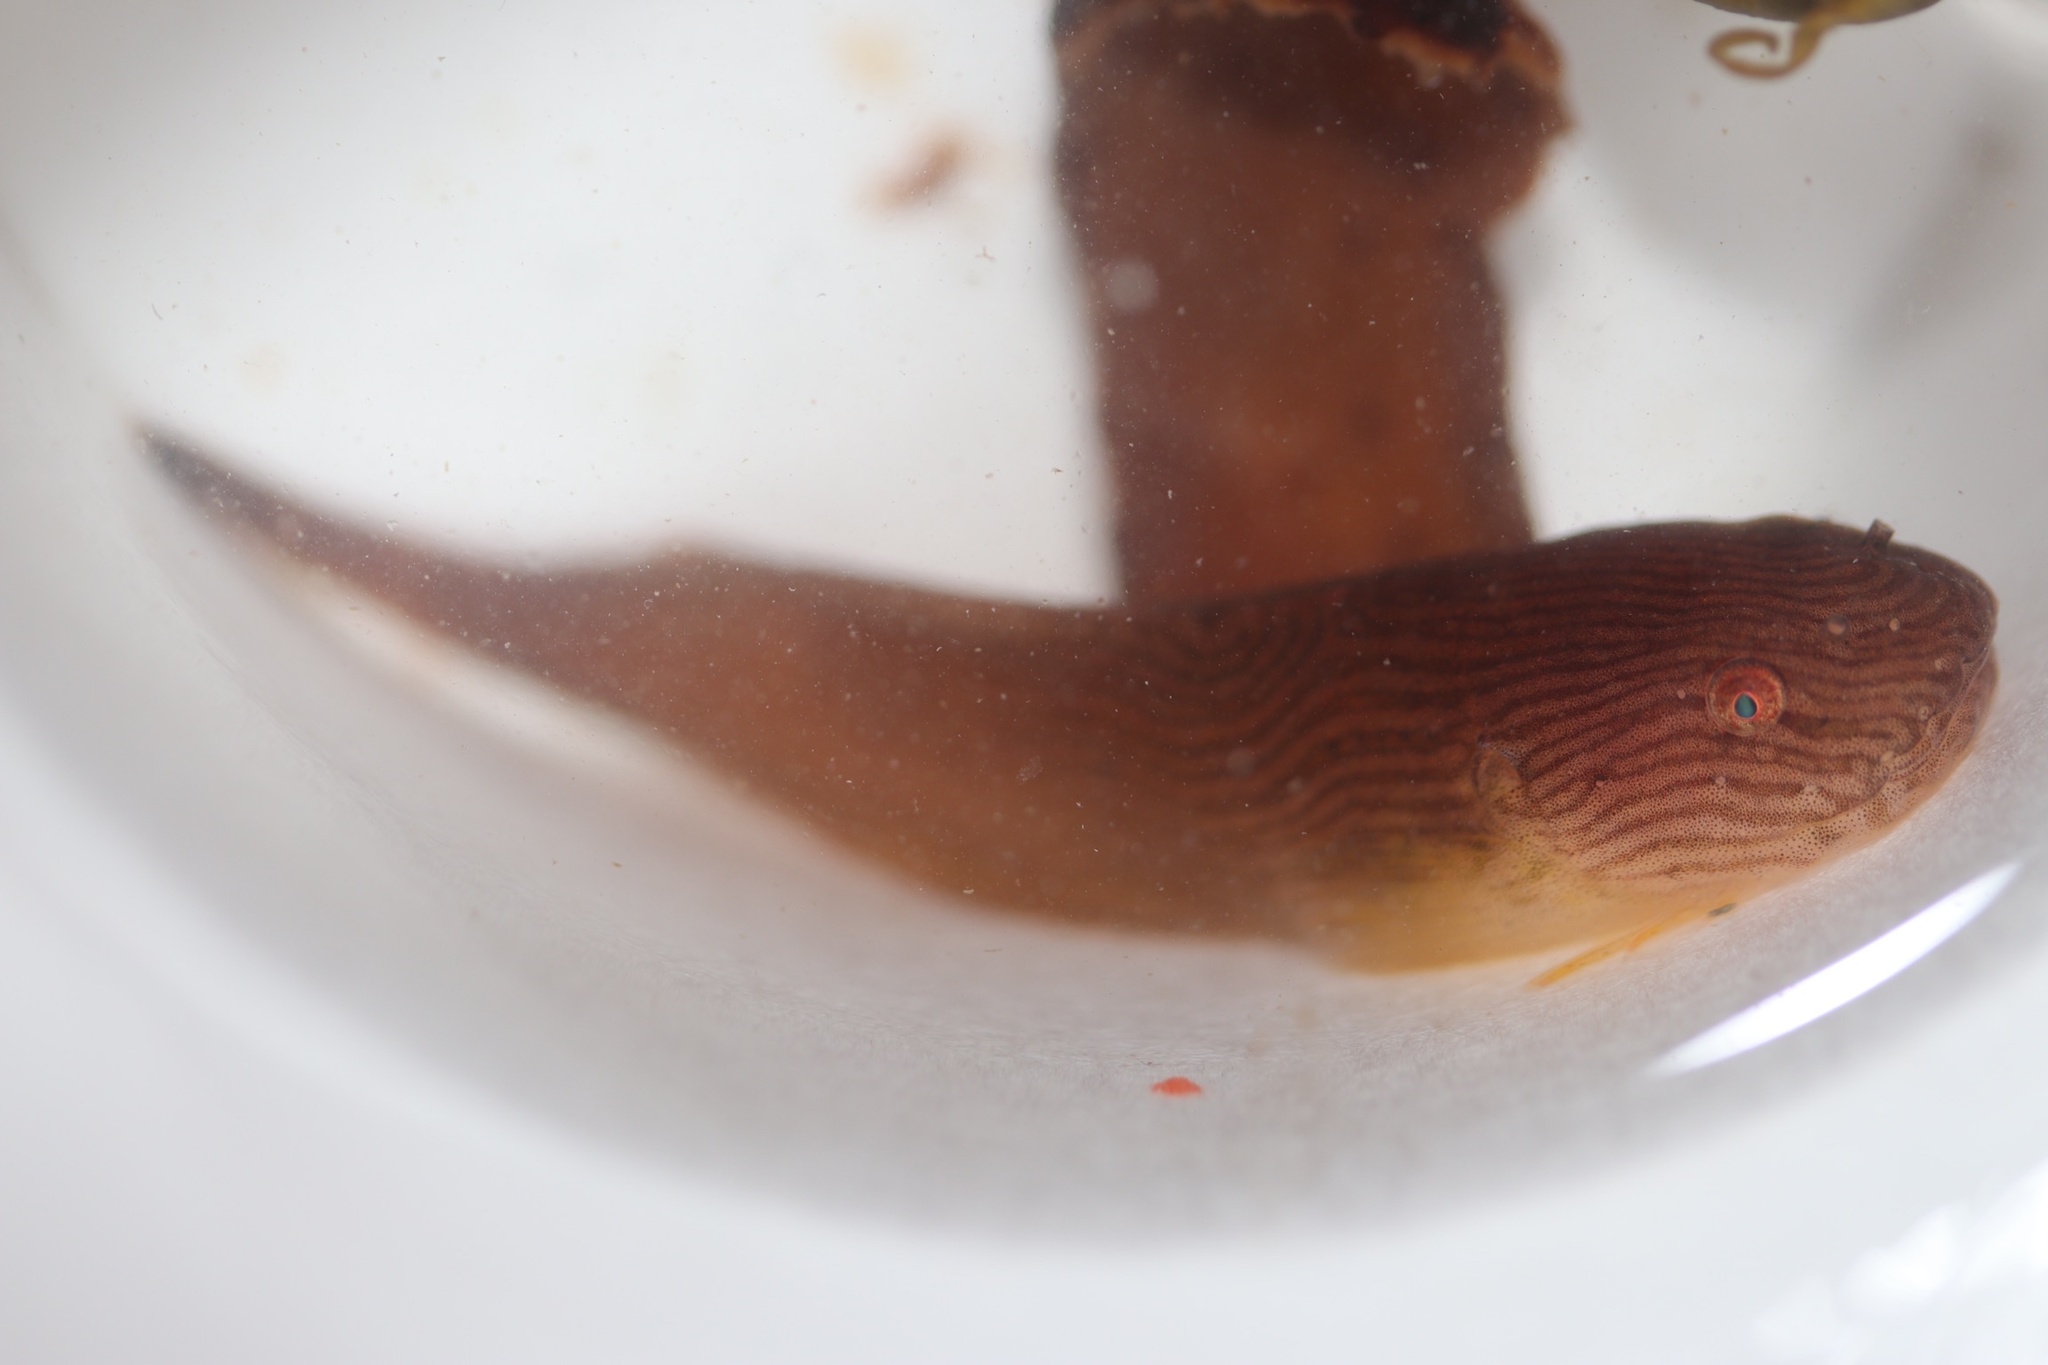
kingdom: Animalia
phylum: Chordata
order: Scorpaeniformes
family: Liparidae
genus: Liparis
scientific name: Liparis montagui
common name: Montagu's sea-snail
